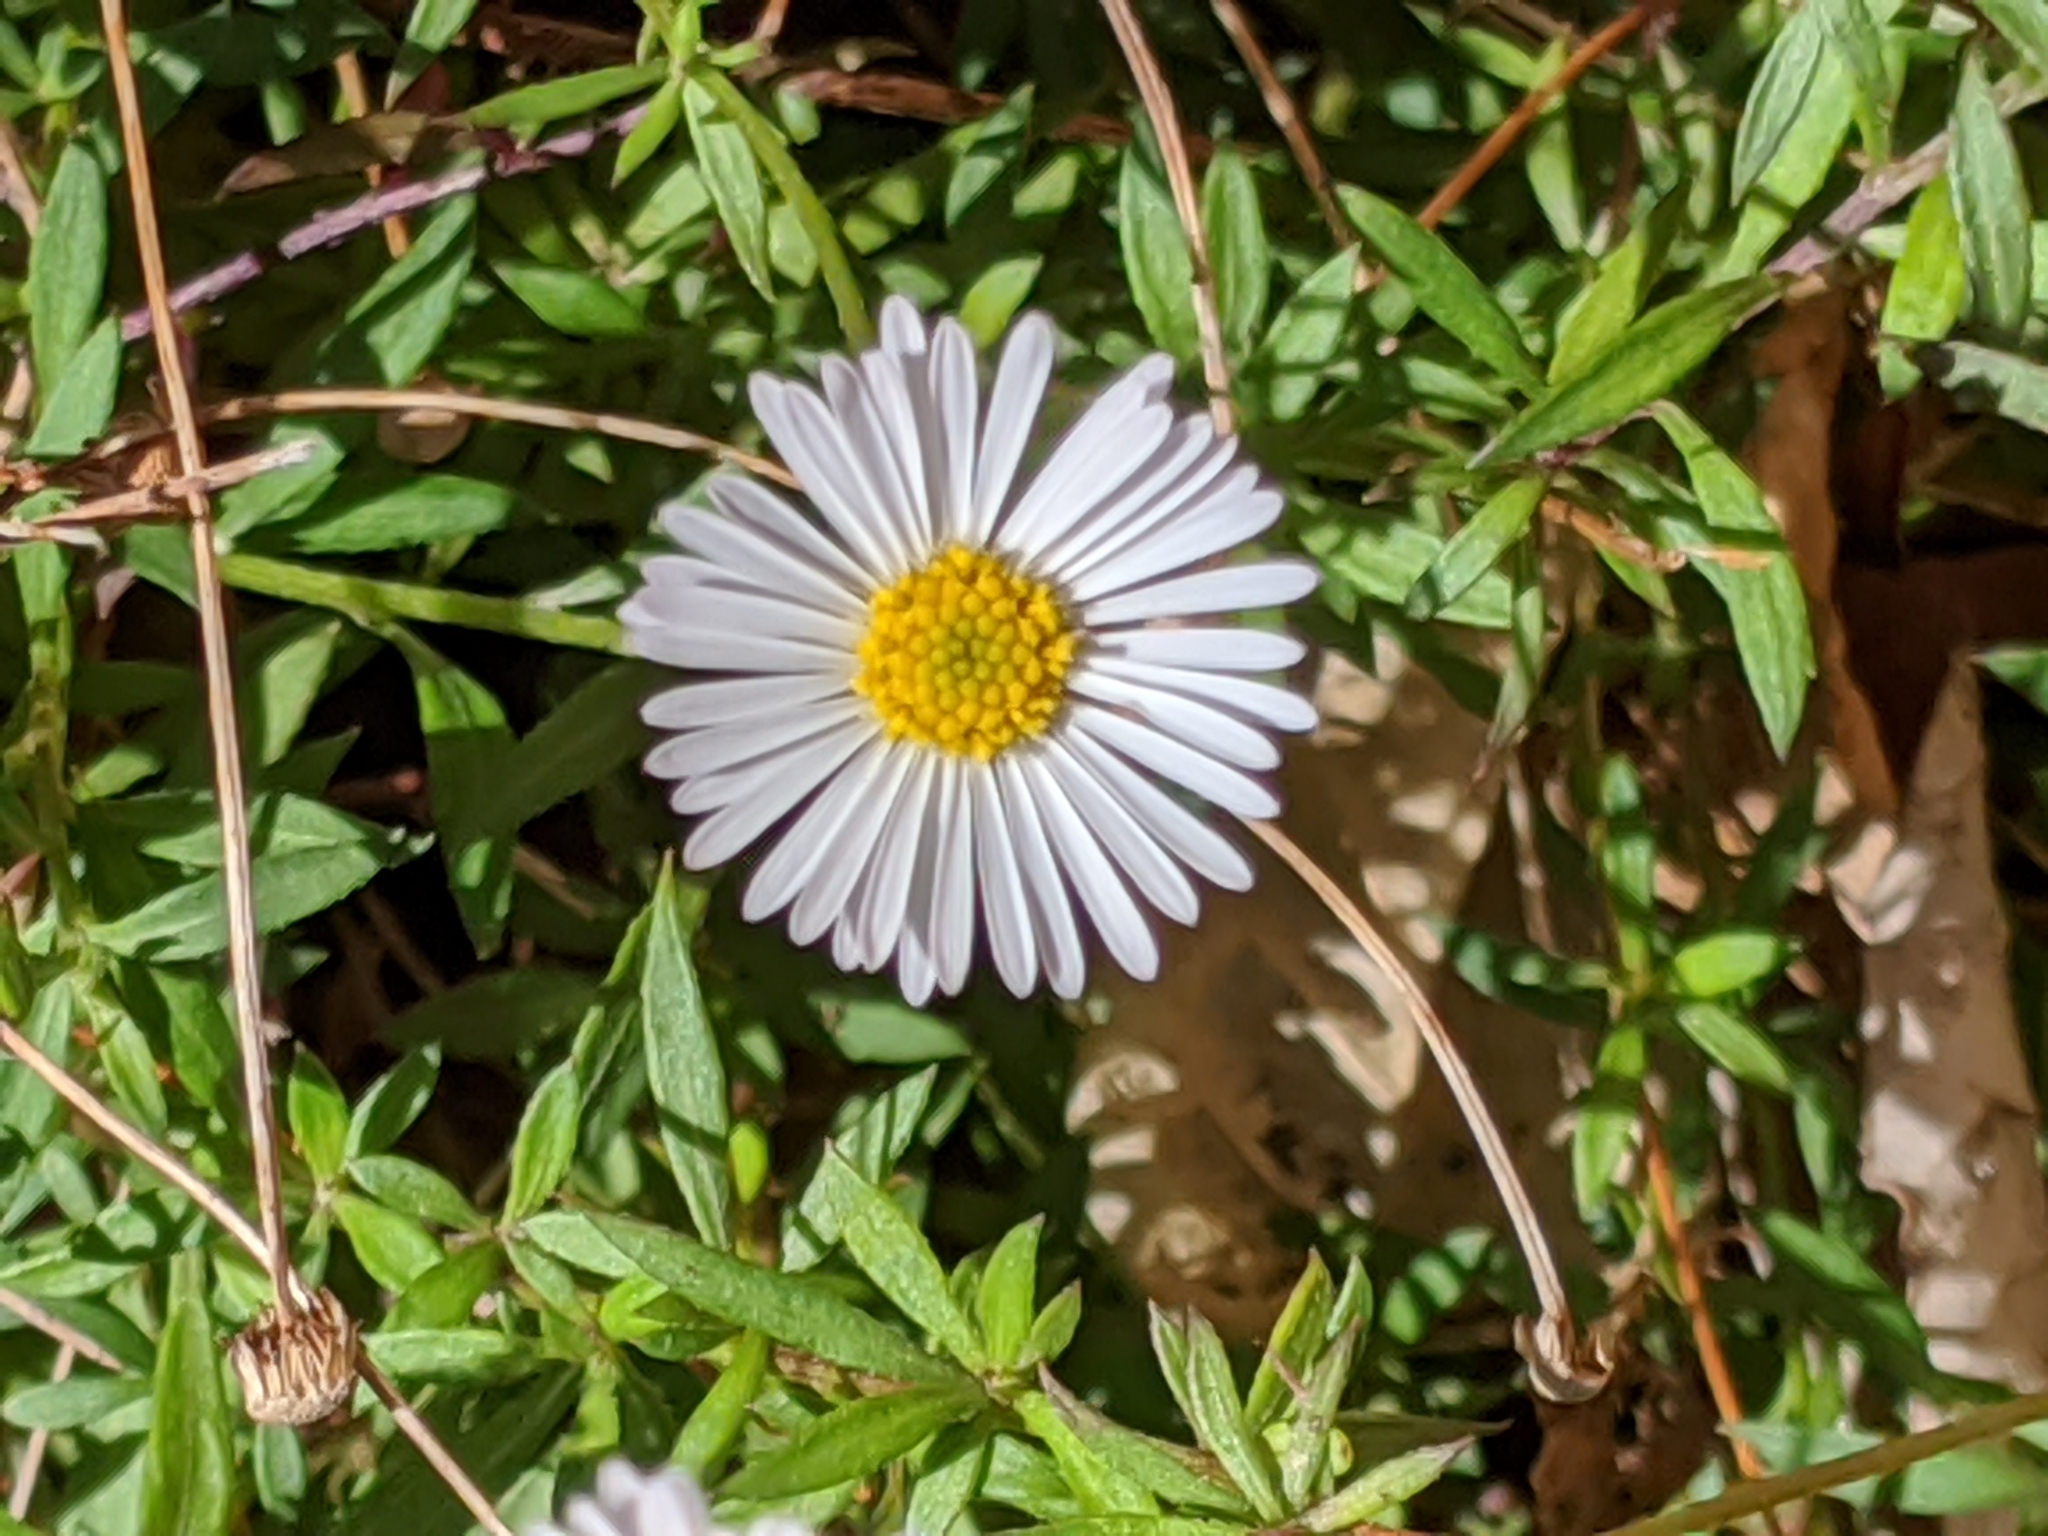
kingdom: Plantae
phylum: Tracheophyta
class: Magnoliopsida
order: Asterales
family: Asteraceae
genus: Erigeron
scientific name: Erigeron karvinskianus
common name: Mexican fleabane
